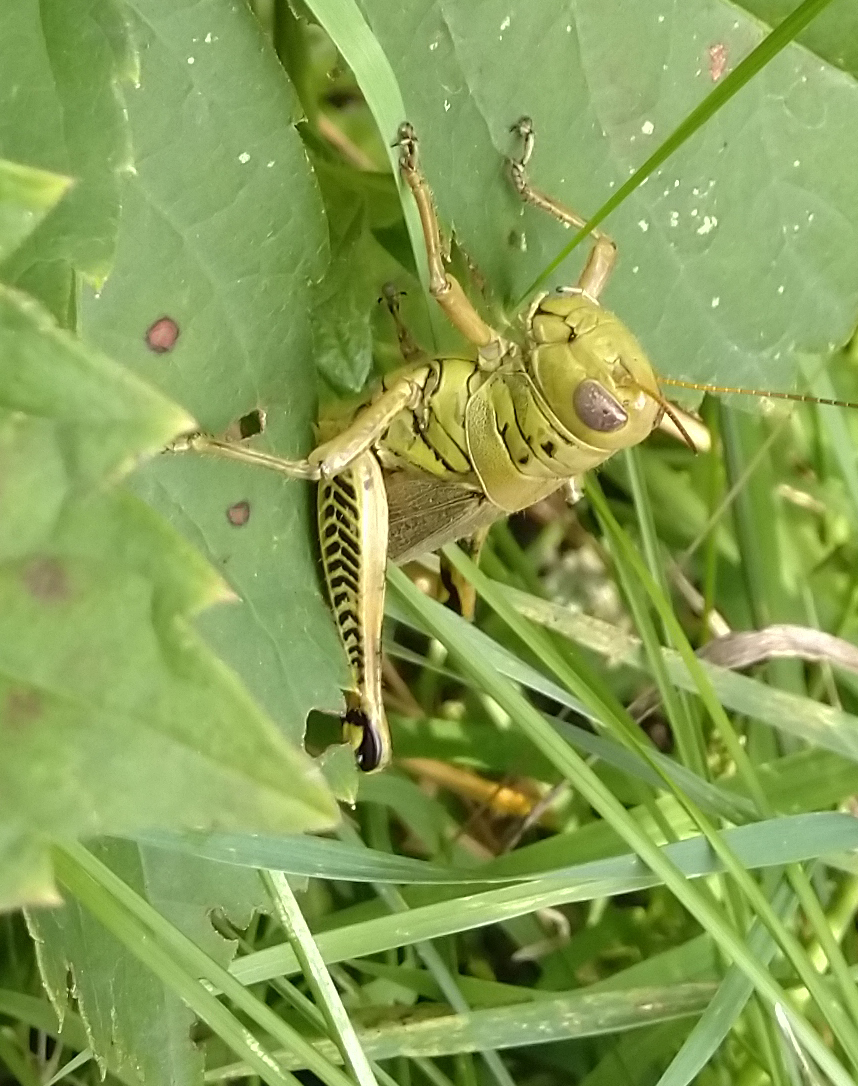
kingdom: Animalia
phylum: Arthropoda
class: Insecta
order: Orthoptera
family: Acrididae
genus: Melanoplus
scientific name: Melanoplus differentialis
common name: Differential grasshopper
